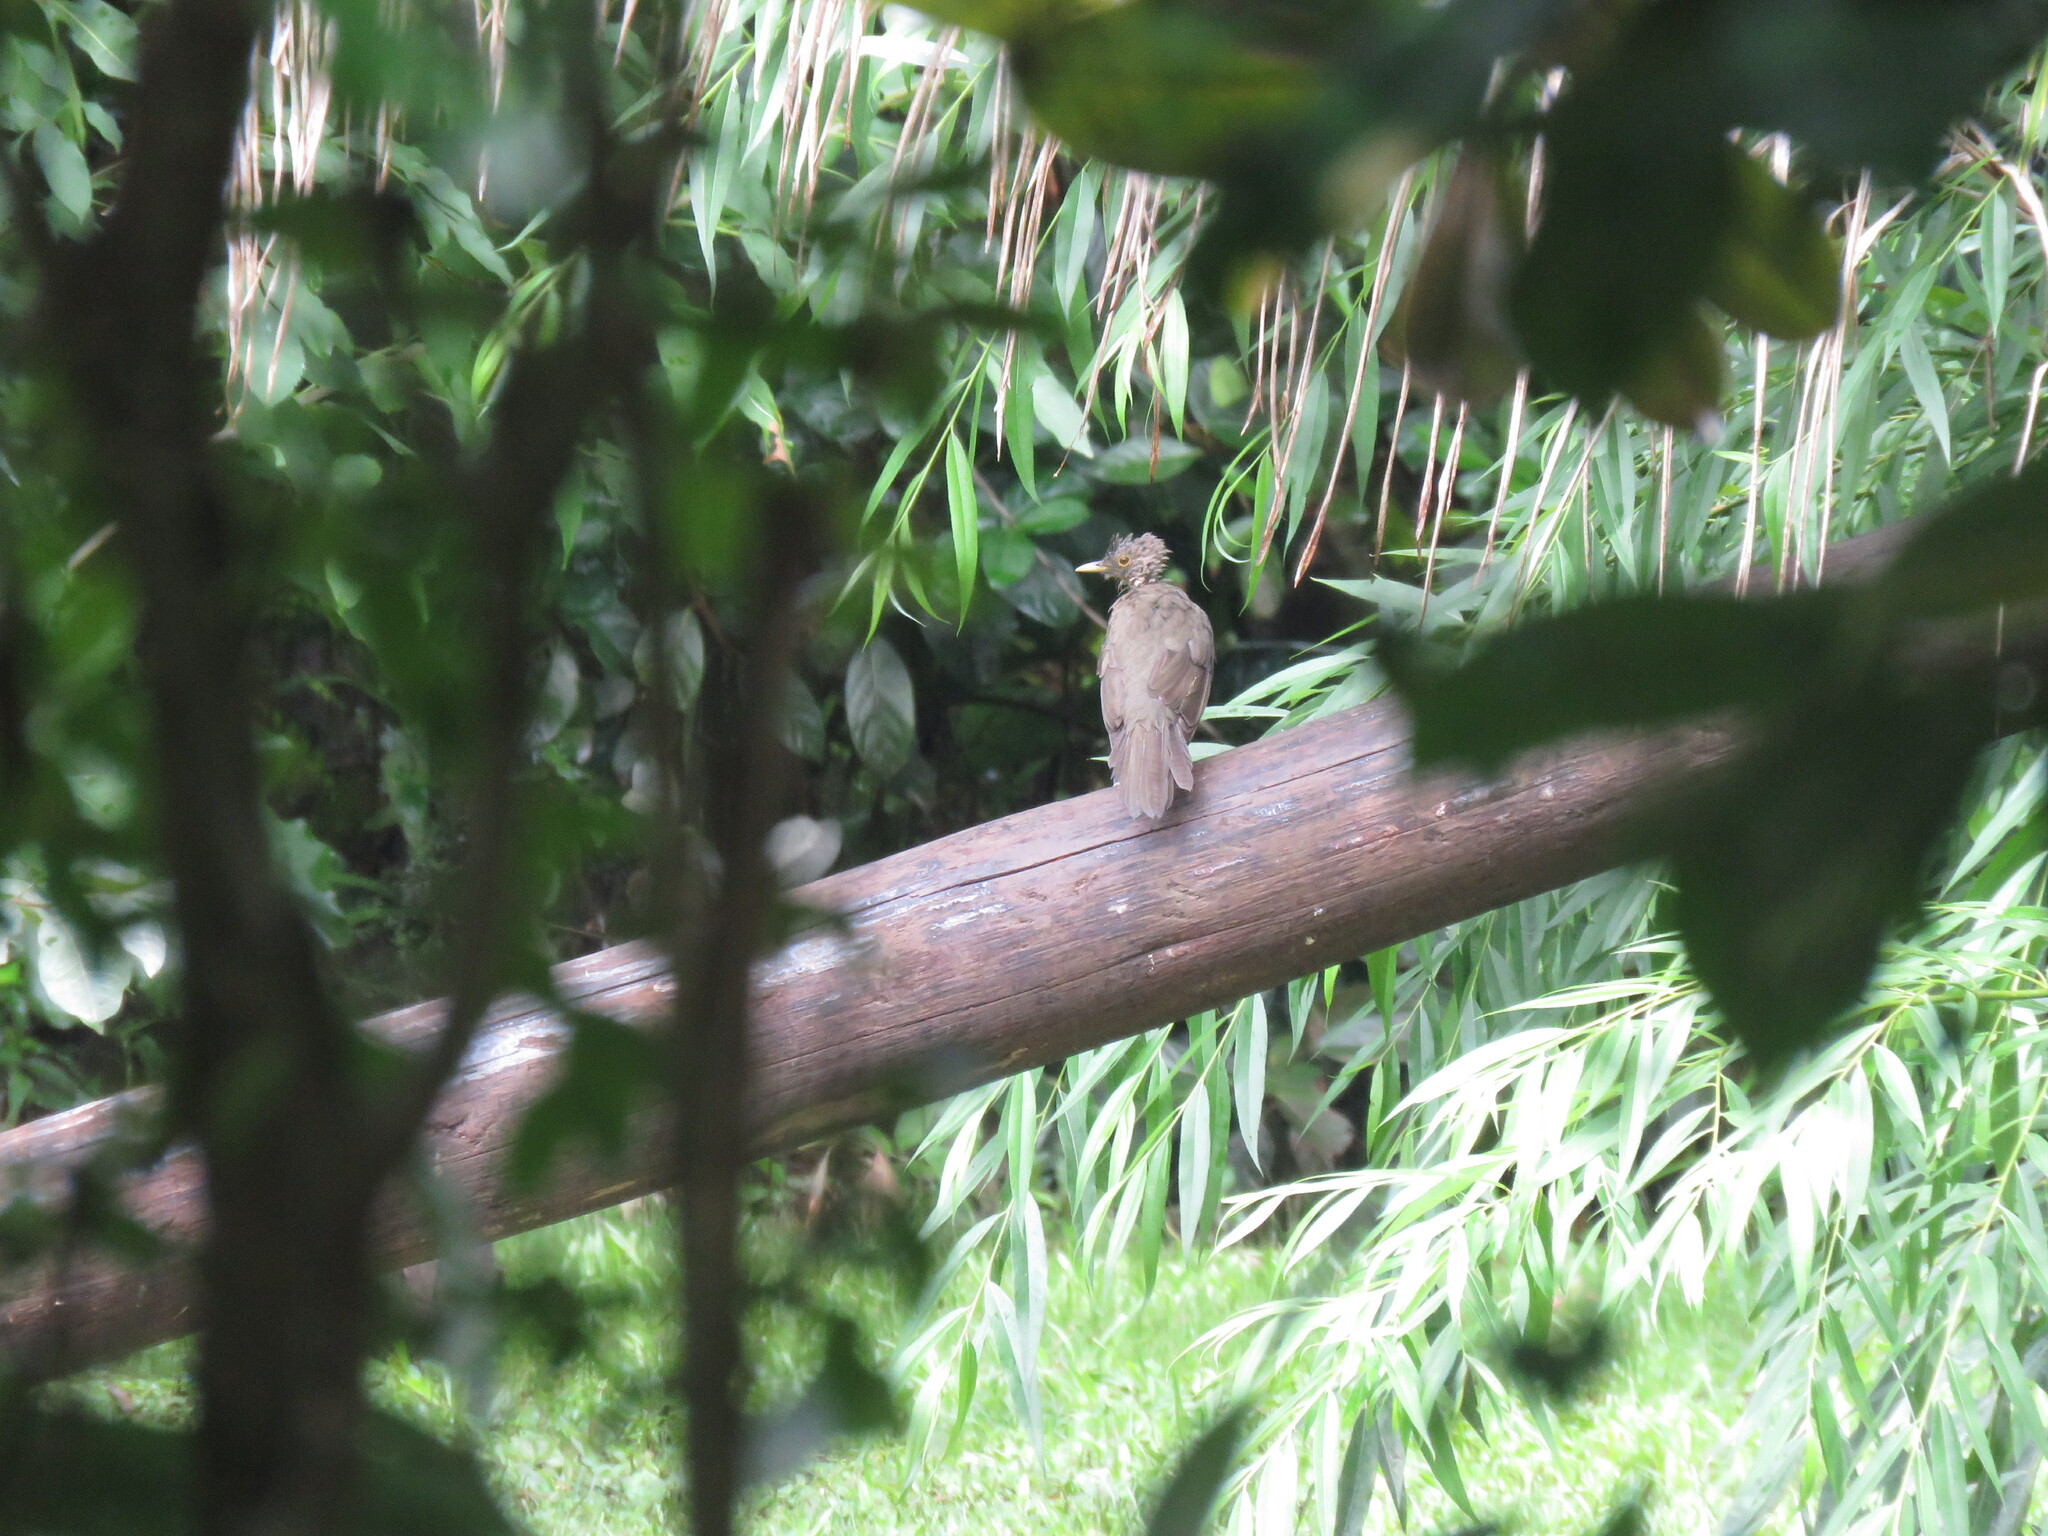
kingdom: Animalia
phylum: Chordata
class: Aves
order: Passeriformes
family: Turdidae
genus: Turdus
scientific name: Turdus rufiventris
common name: Rufous-bellied thrush
